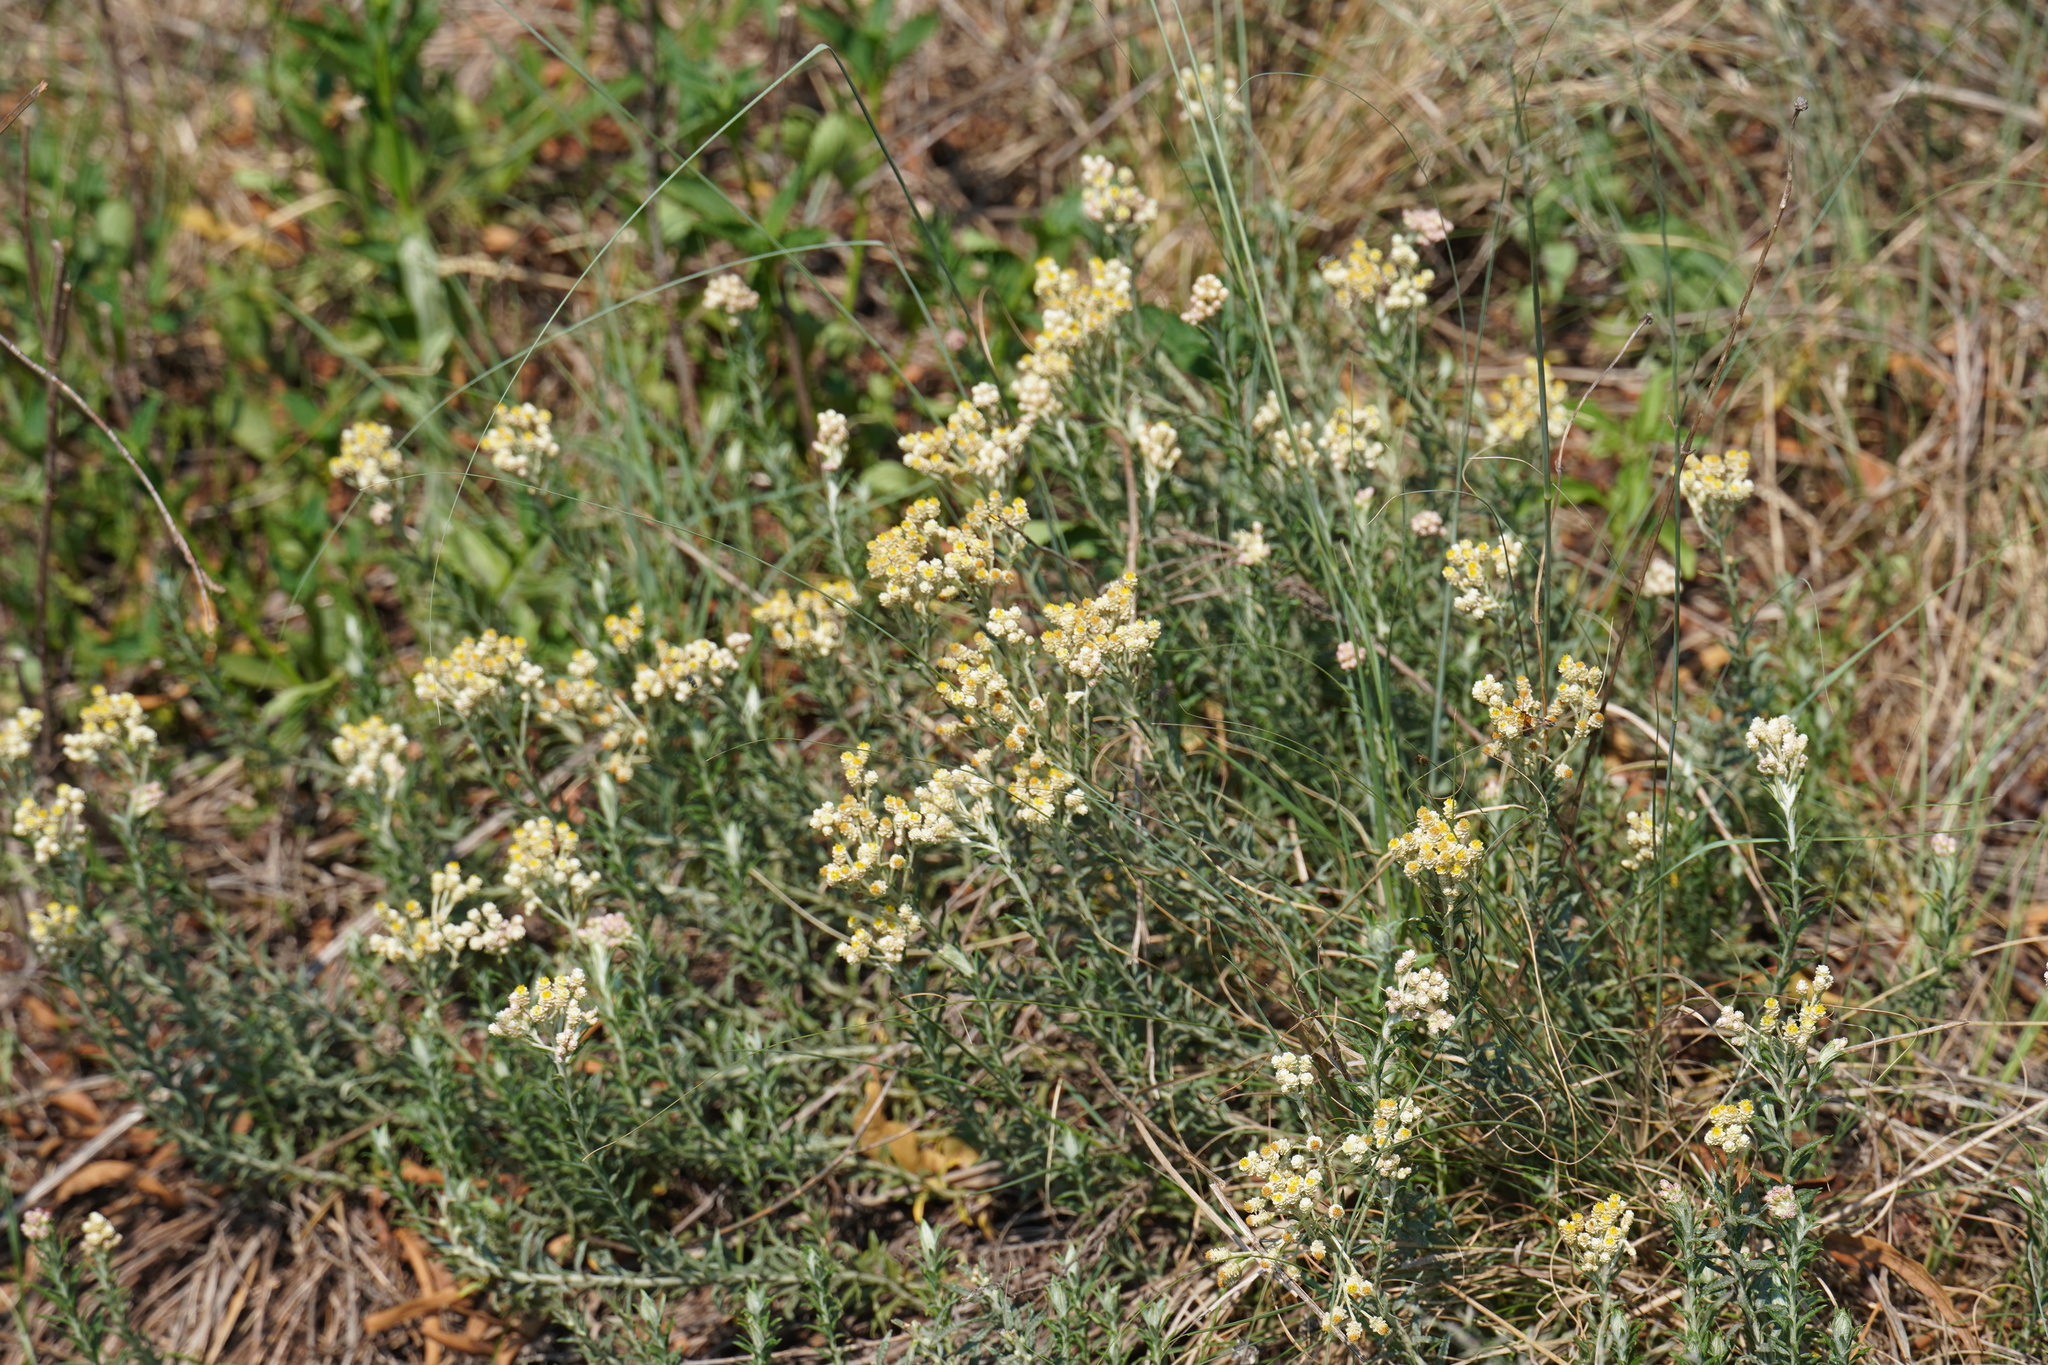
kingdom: Plantae
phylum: Tracheophyta
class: Magnoliopsida
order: Asterales
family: Asteraceae
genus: Helichrysum
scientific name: Helichrysum rugulosum
